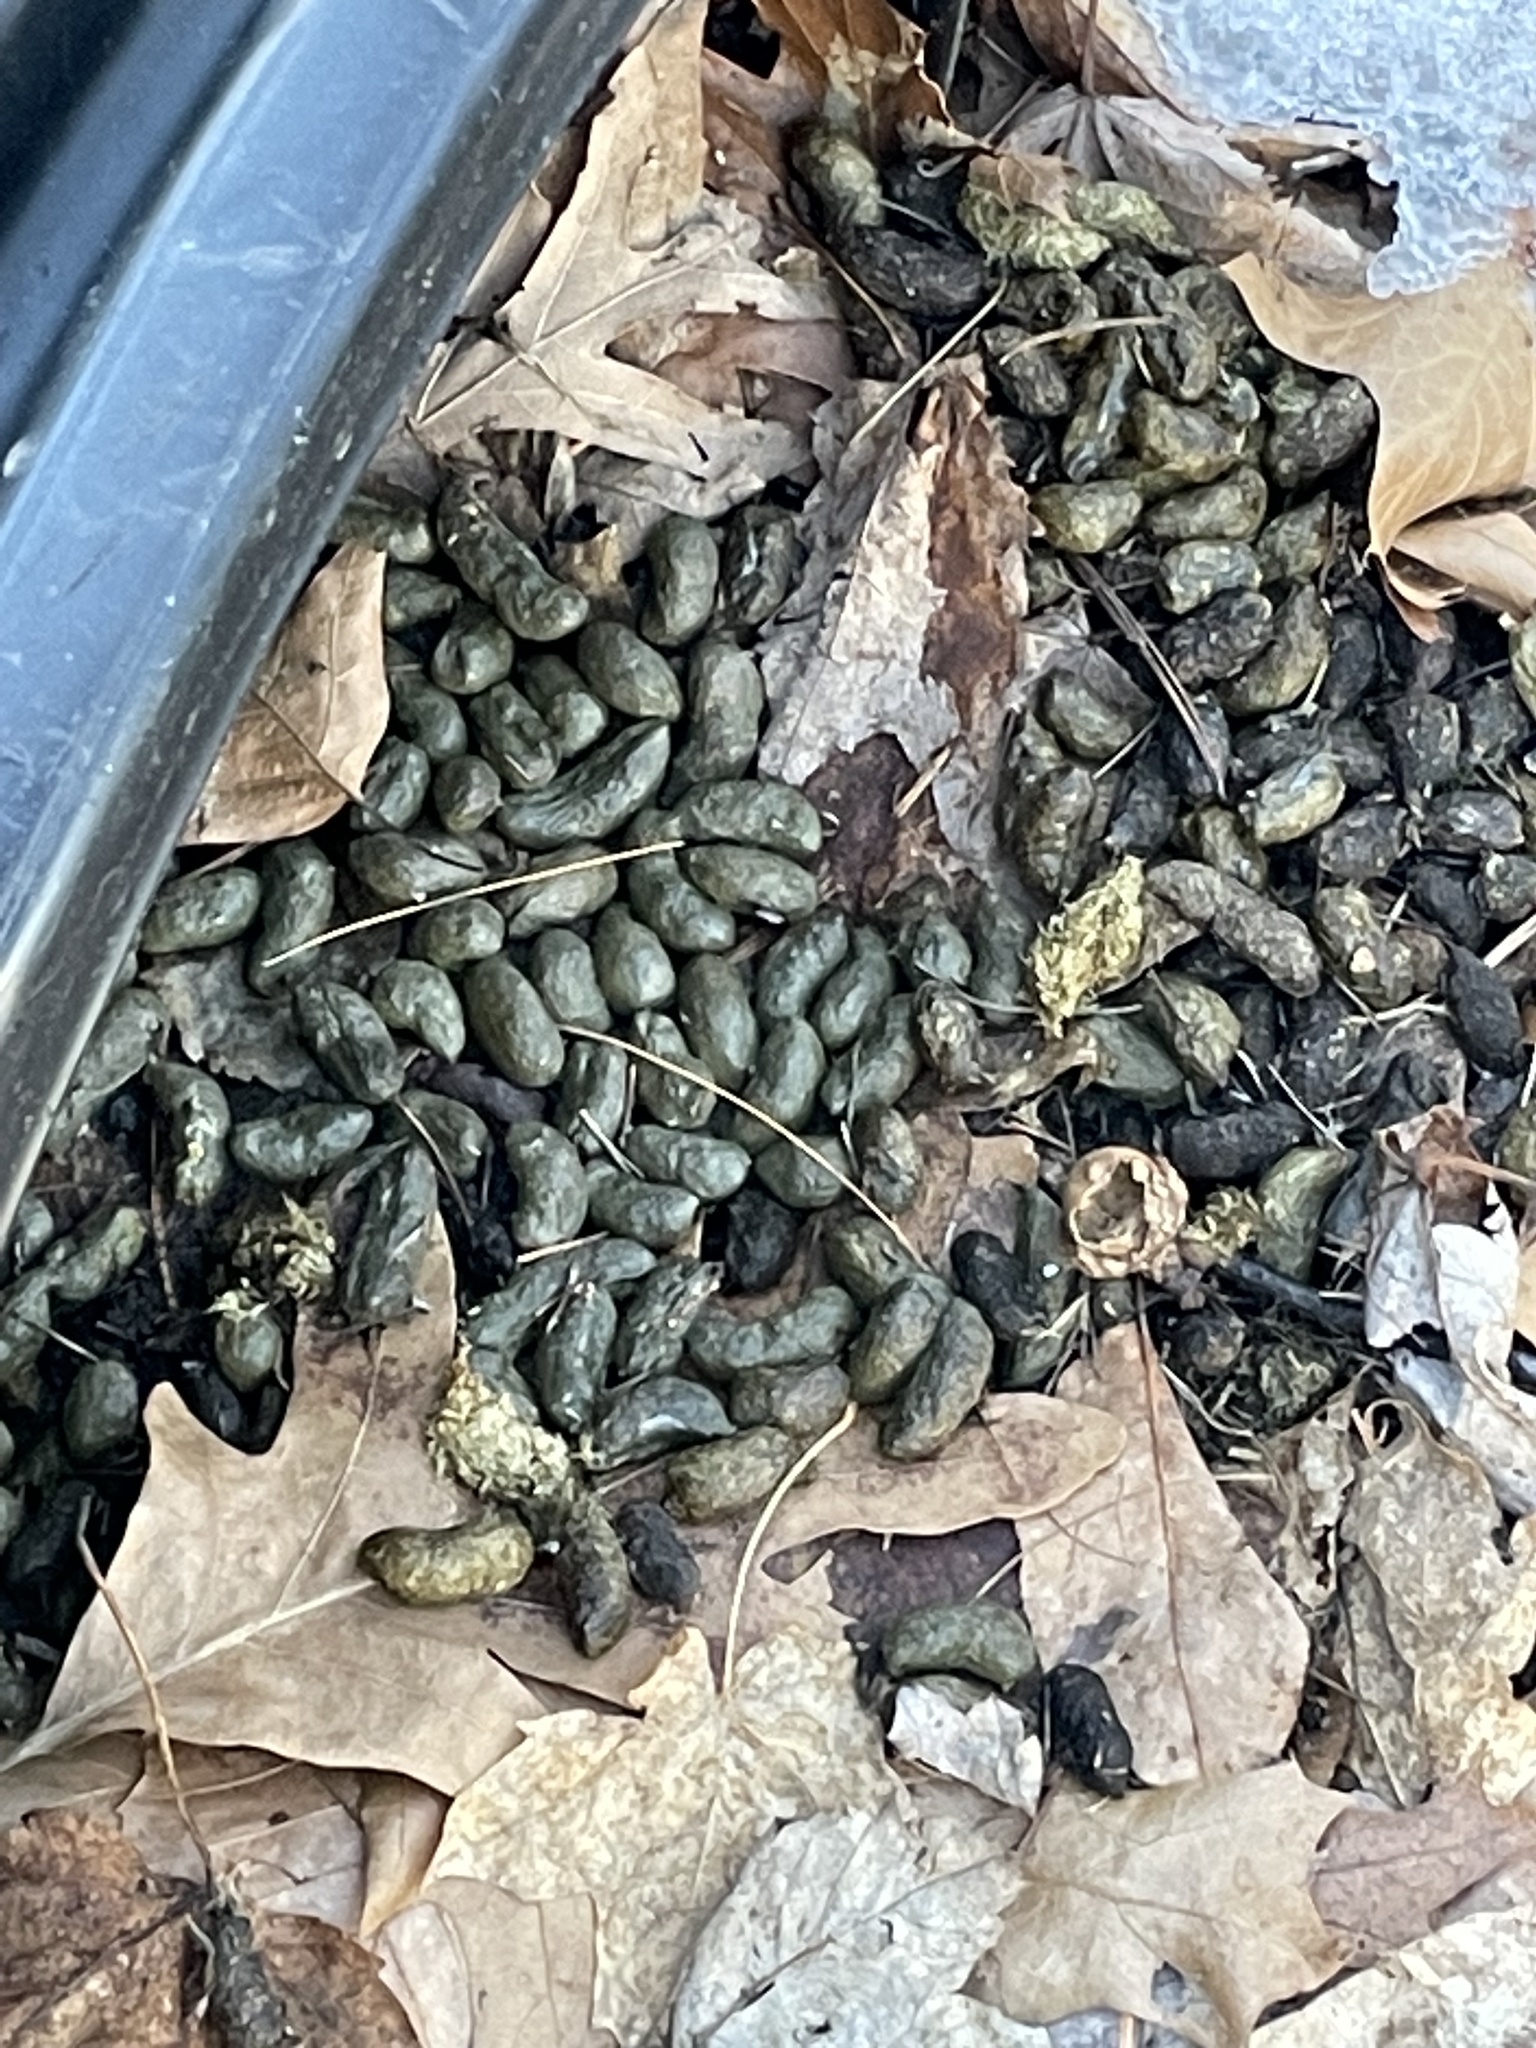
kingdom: Animalia
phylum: Chordata
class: Mammalia
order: Rodentia
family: Erethizontidae
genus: Erethizon
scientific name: Erethizon dorsatus
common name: North american porcupine
